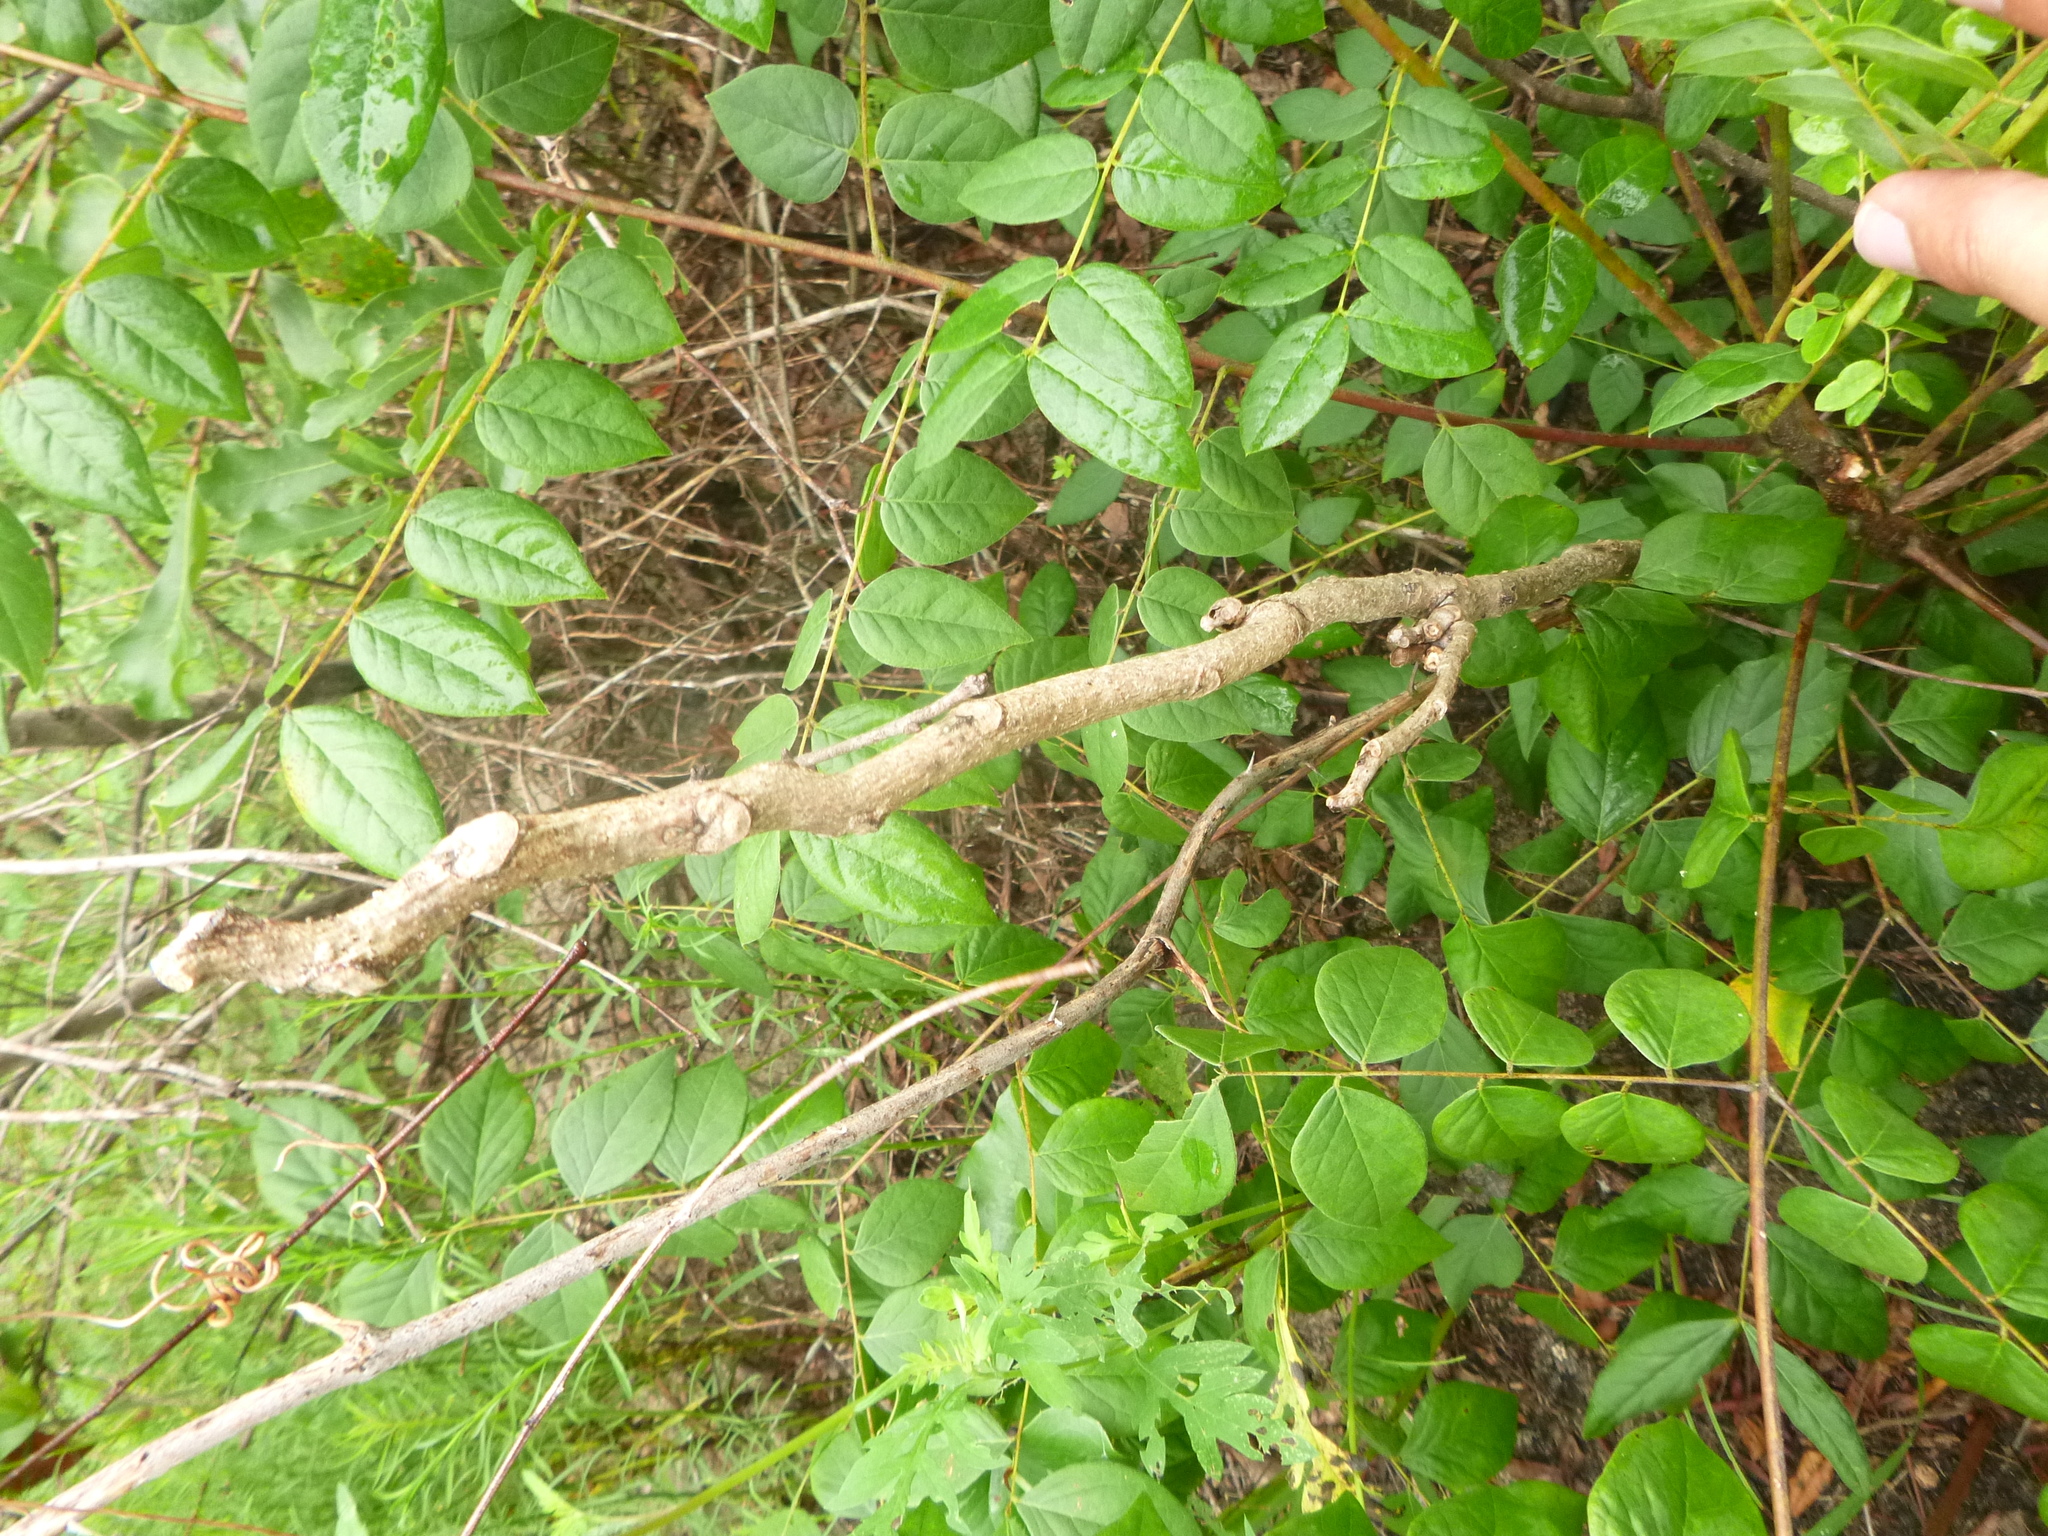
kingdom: Plantae
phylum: Tracheophyta
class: Magnoliopsida
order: Fabales
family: Fabaceae
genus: Gymnocladus
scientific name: Gymnocladus dioicus
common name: Kentucky coffee-tree
